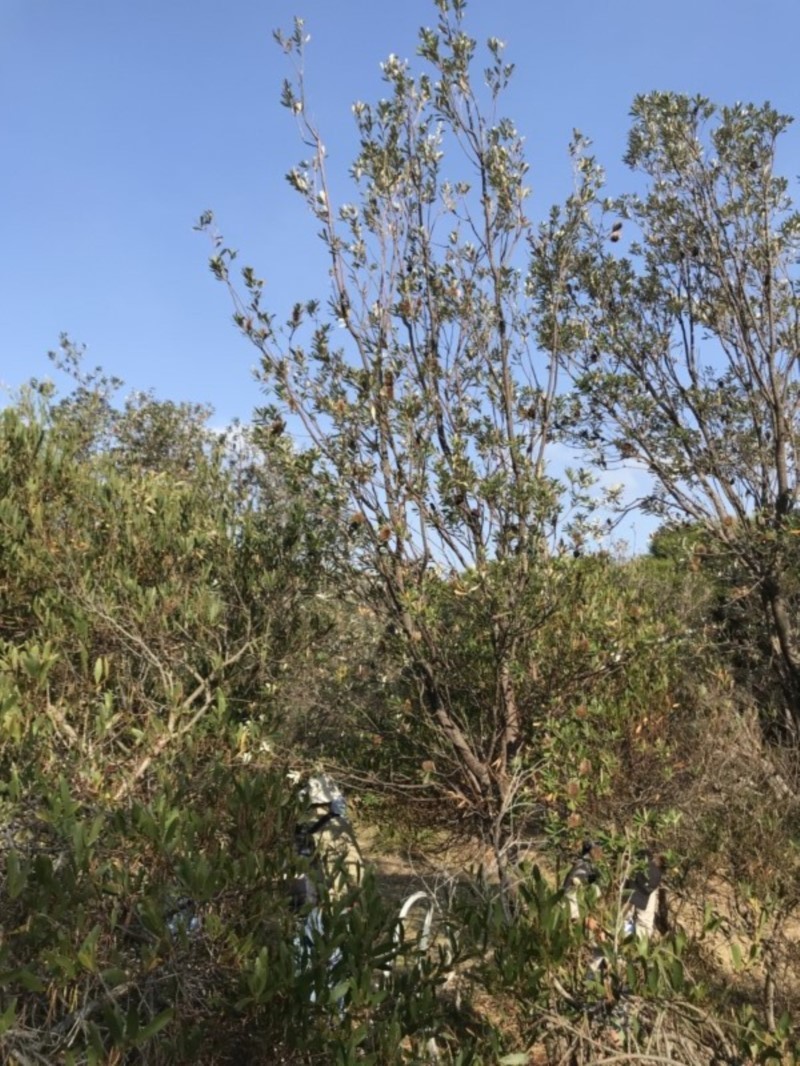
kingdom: Plantae
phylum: Tracheophyta
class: Magnoliopsida
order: Proteales
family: Proteaceae
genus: Banksia
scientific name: Banksia integrifolia
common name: White-honeysuckle
